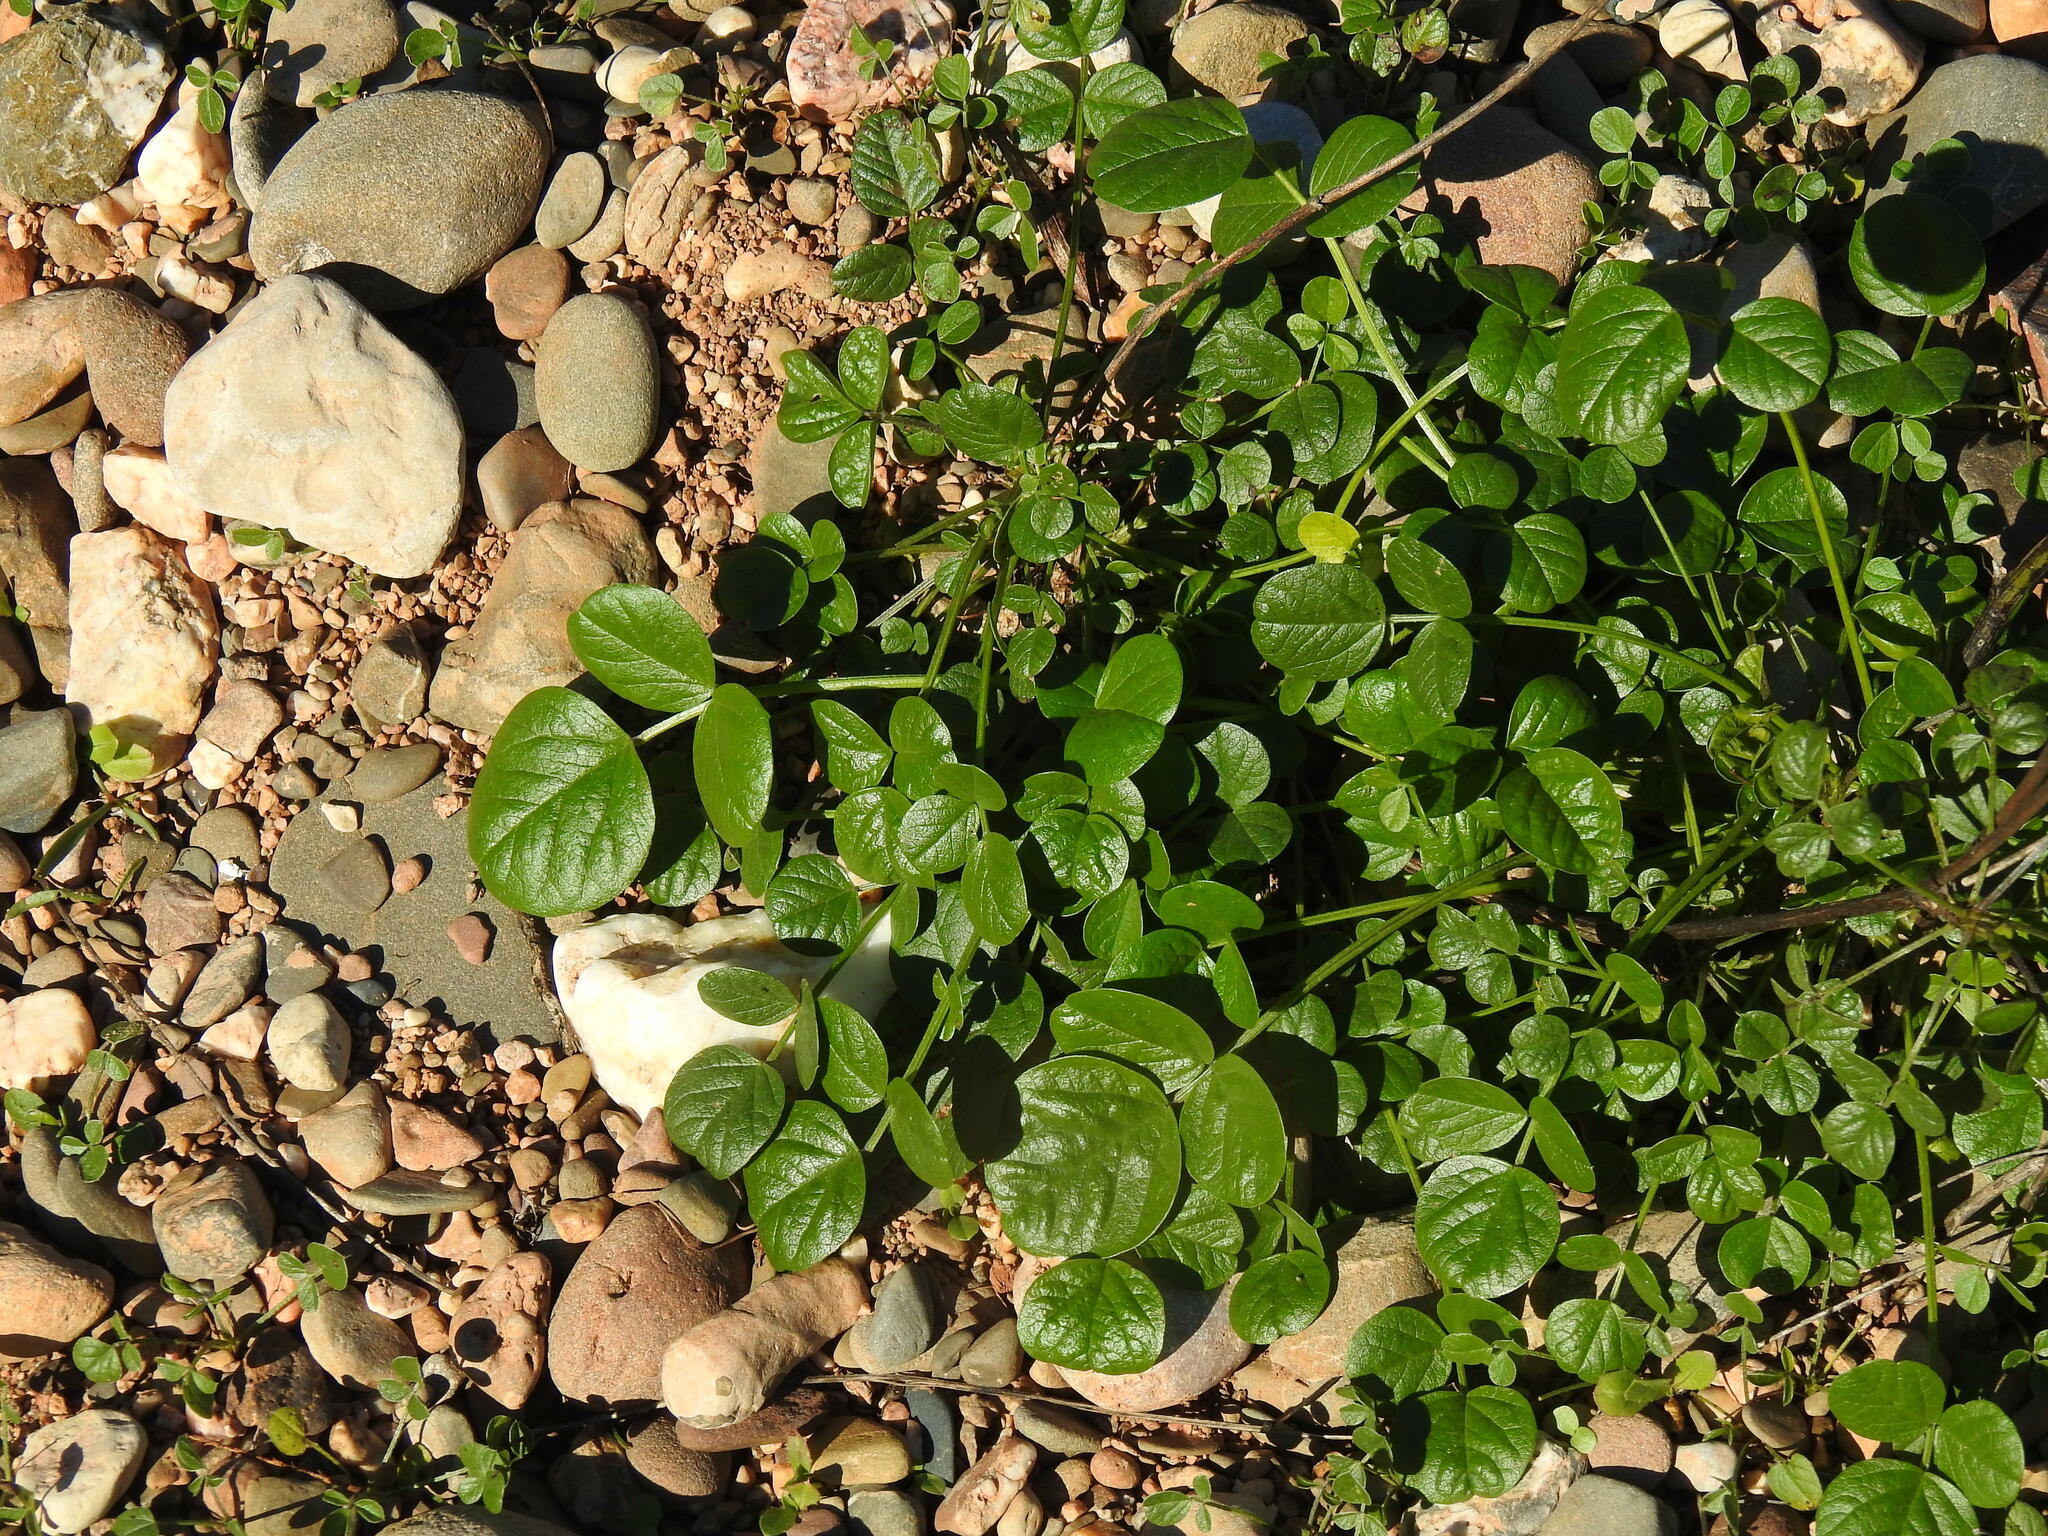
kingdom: Plantae
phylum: Tracheophyta
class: Magnoliopsida
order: Fabales
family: Fabaceae
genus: Bituminaria
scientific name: Bituminaria bituminosa
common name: Arabian pea
